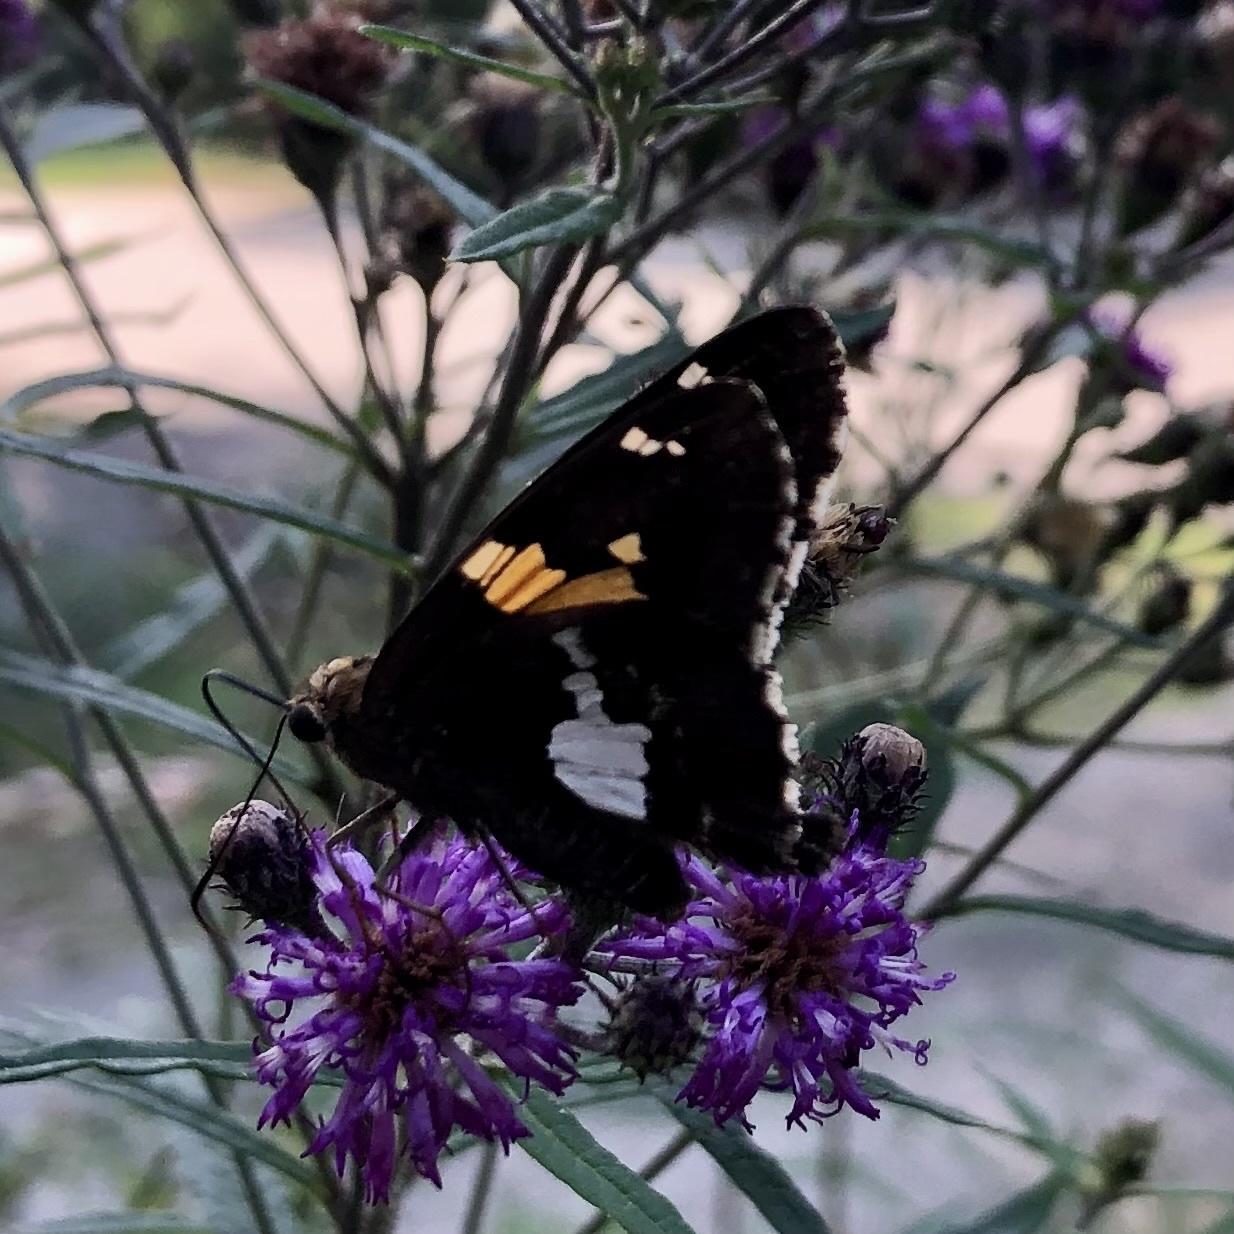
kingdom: Animalia
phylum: Arthropoda
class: Insecta
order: Lepidoptera
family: Hesperiidae
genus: Epargyreus
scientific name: Epargyreus clarus
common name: Silver-spotted skipper
